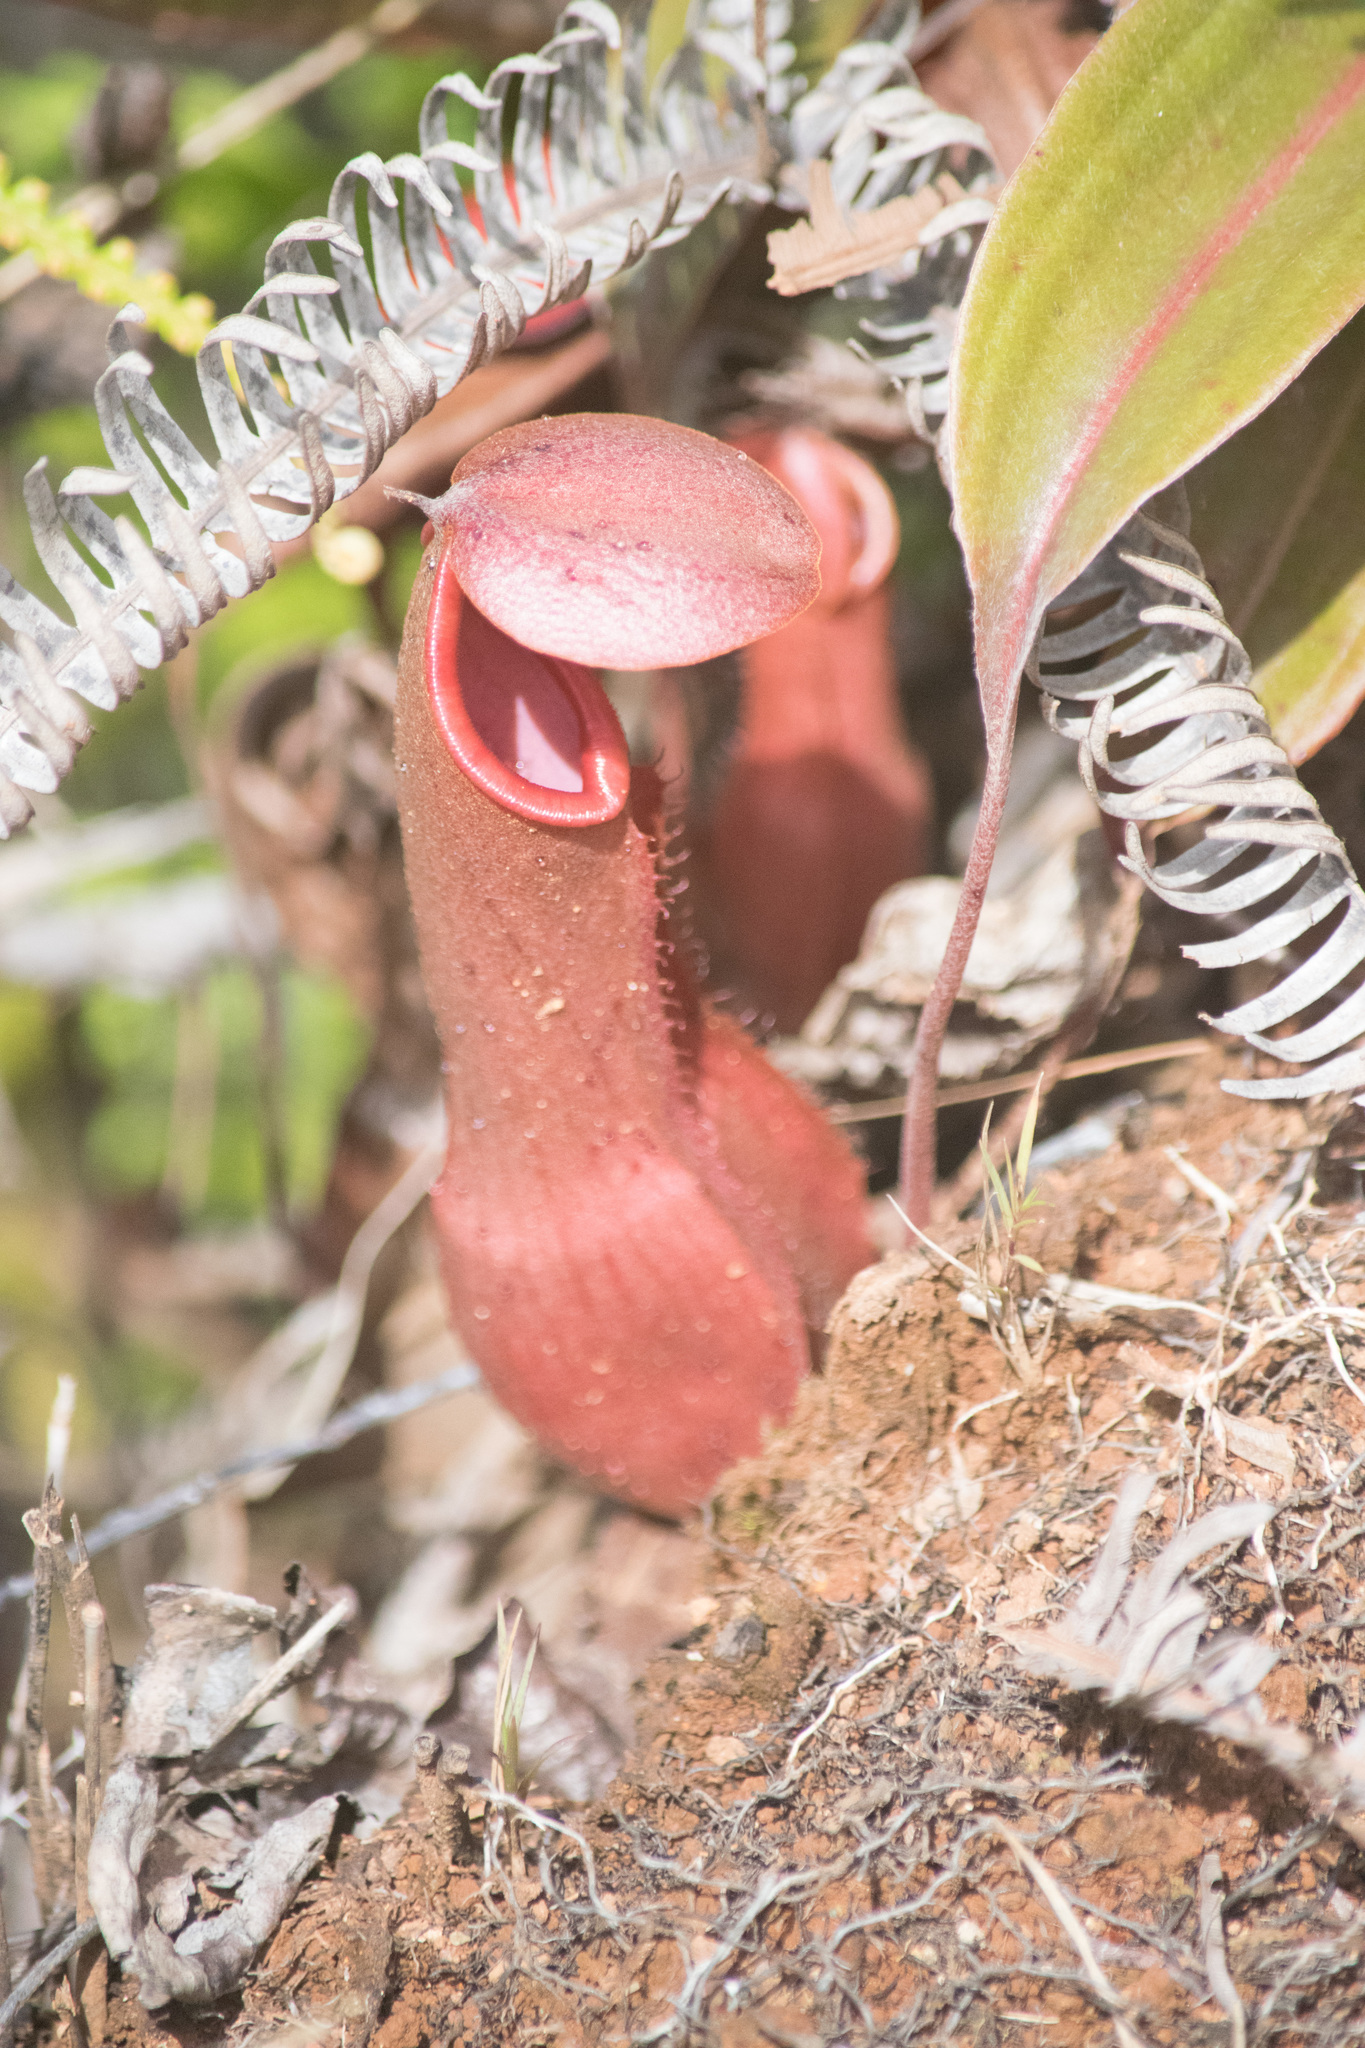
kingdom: Plantae
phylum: Tracheophyta
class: Magnoliopsida
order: Caryophyllales
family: Nepenthaceae
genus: Nepenthes
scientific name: Nepenthes mirabilis
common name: Tropical pitcherplant
